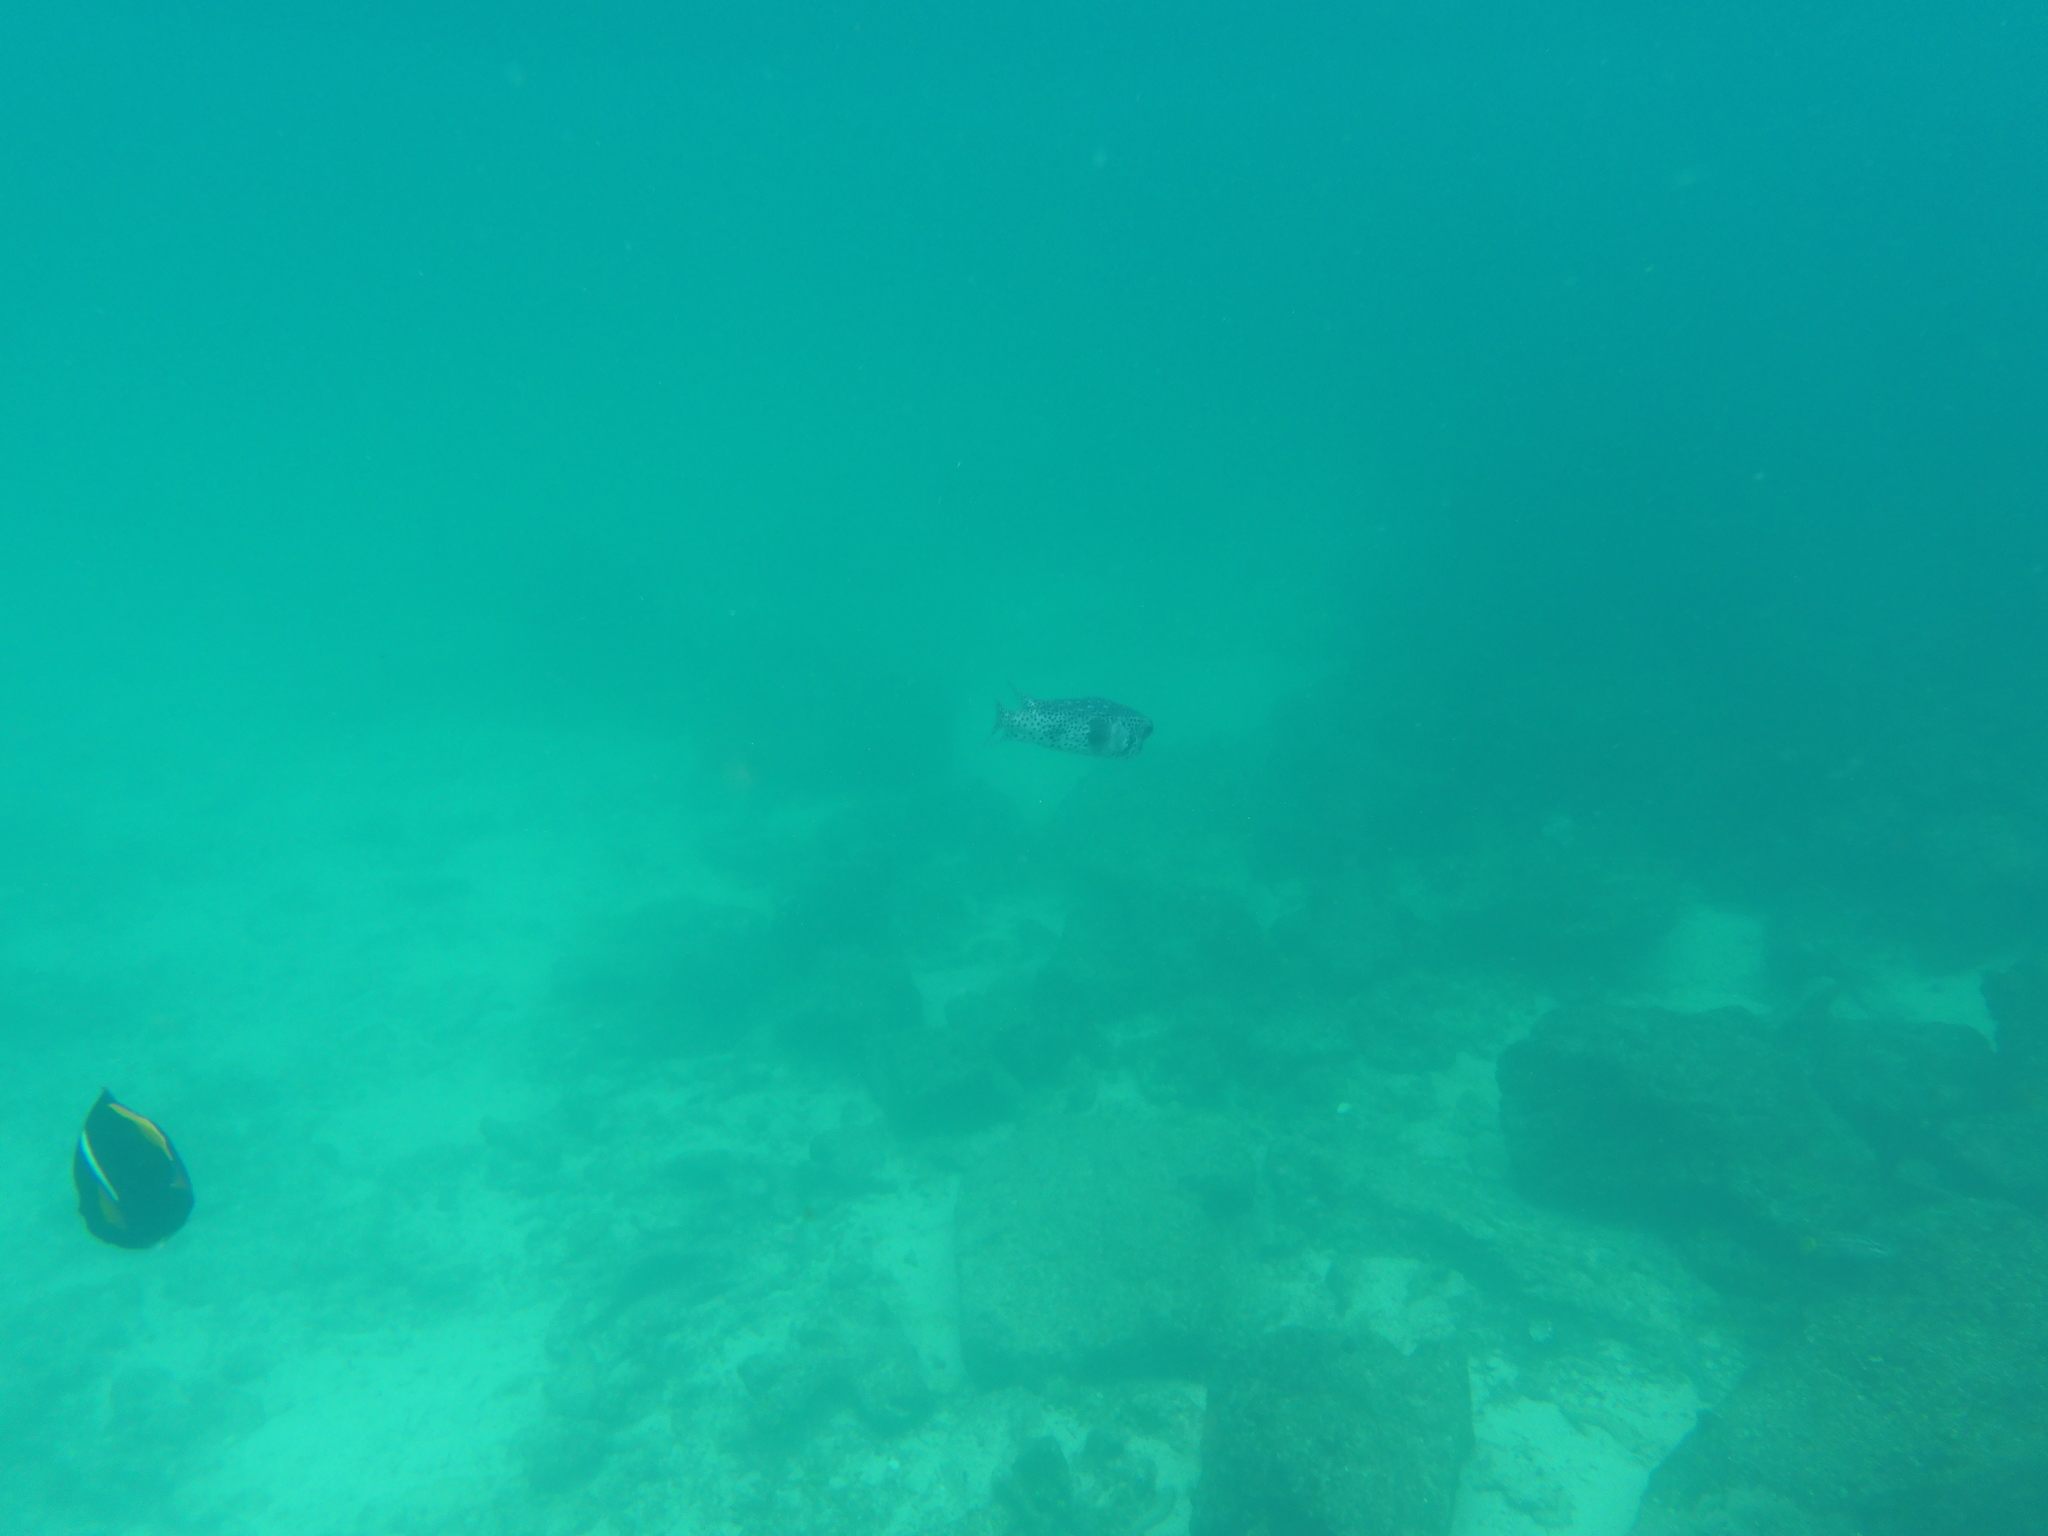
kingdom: Animalia
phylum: Chordata
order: Tetraodontiformes
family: Diodontidae
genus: Chilomycterus
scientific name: Chilomycterus reticulatus
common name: Spotfin burrfish
